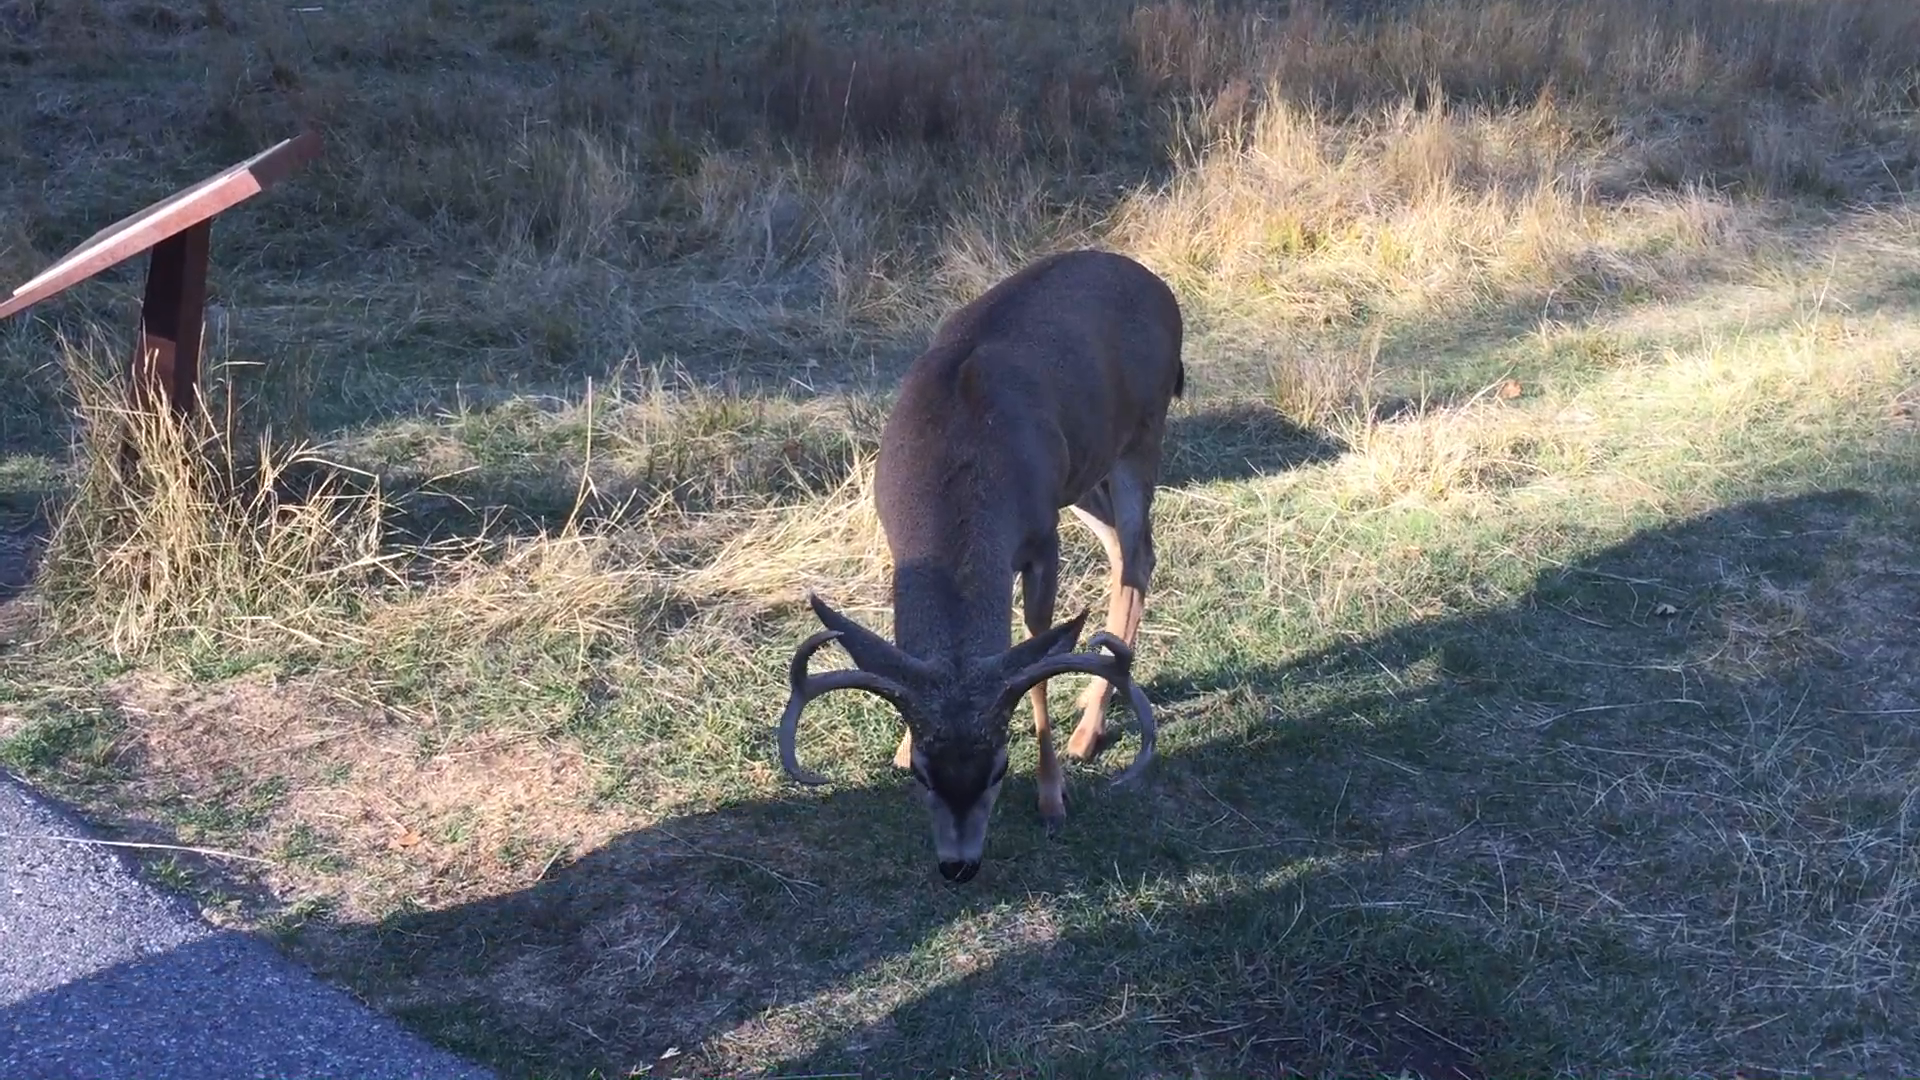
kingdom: Animalia
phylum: Chordata
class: Mammalia
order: Artiodactyla
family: Cervidae
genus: Odocoileus
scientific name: Odocoileus hemionus
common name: Mule deer
